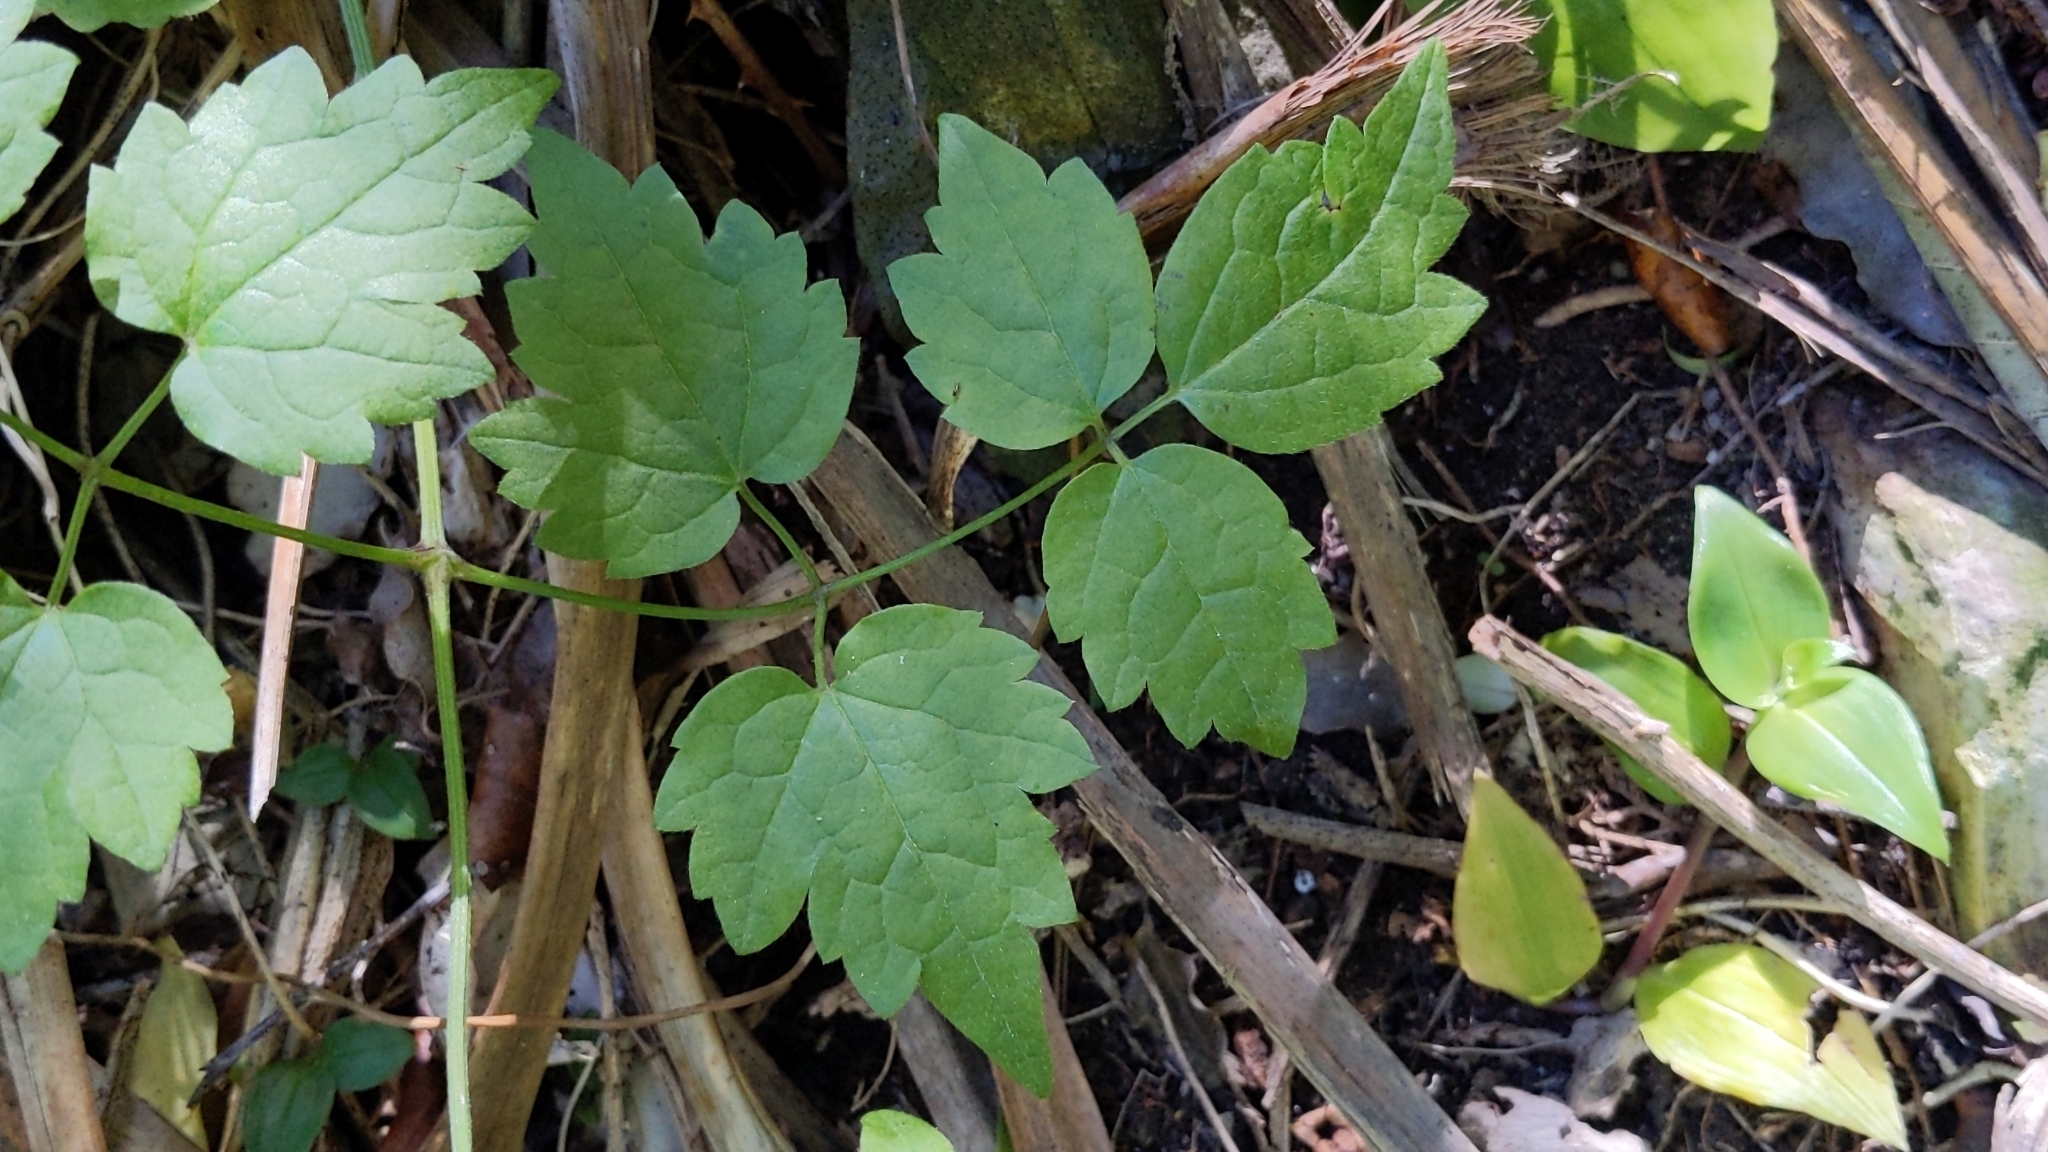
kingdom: Plantae
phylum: Tracheophyta
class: Magnoliopsida
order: Ranunculales
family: Ranunculaceae
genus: Clematis
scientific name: Clematis vitalba
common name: Evergreen clematis
